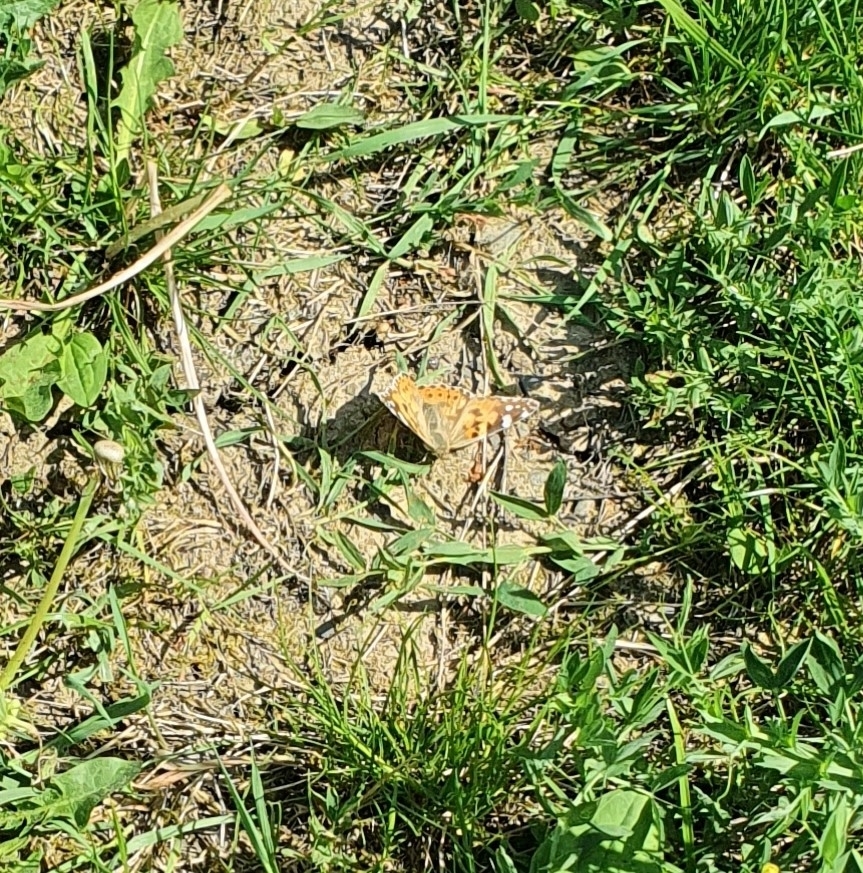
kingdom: Animalia
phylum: Arthropoda
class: Insecta
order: Lepidoptera
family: Nymphalidae
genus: Vanessa
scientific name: Vanessa cardui
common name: Painted lady
